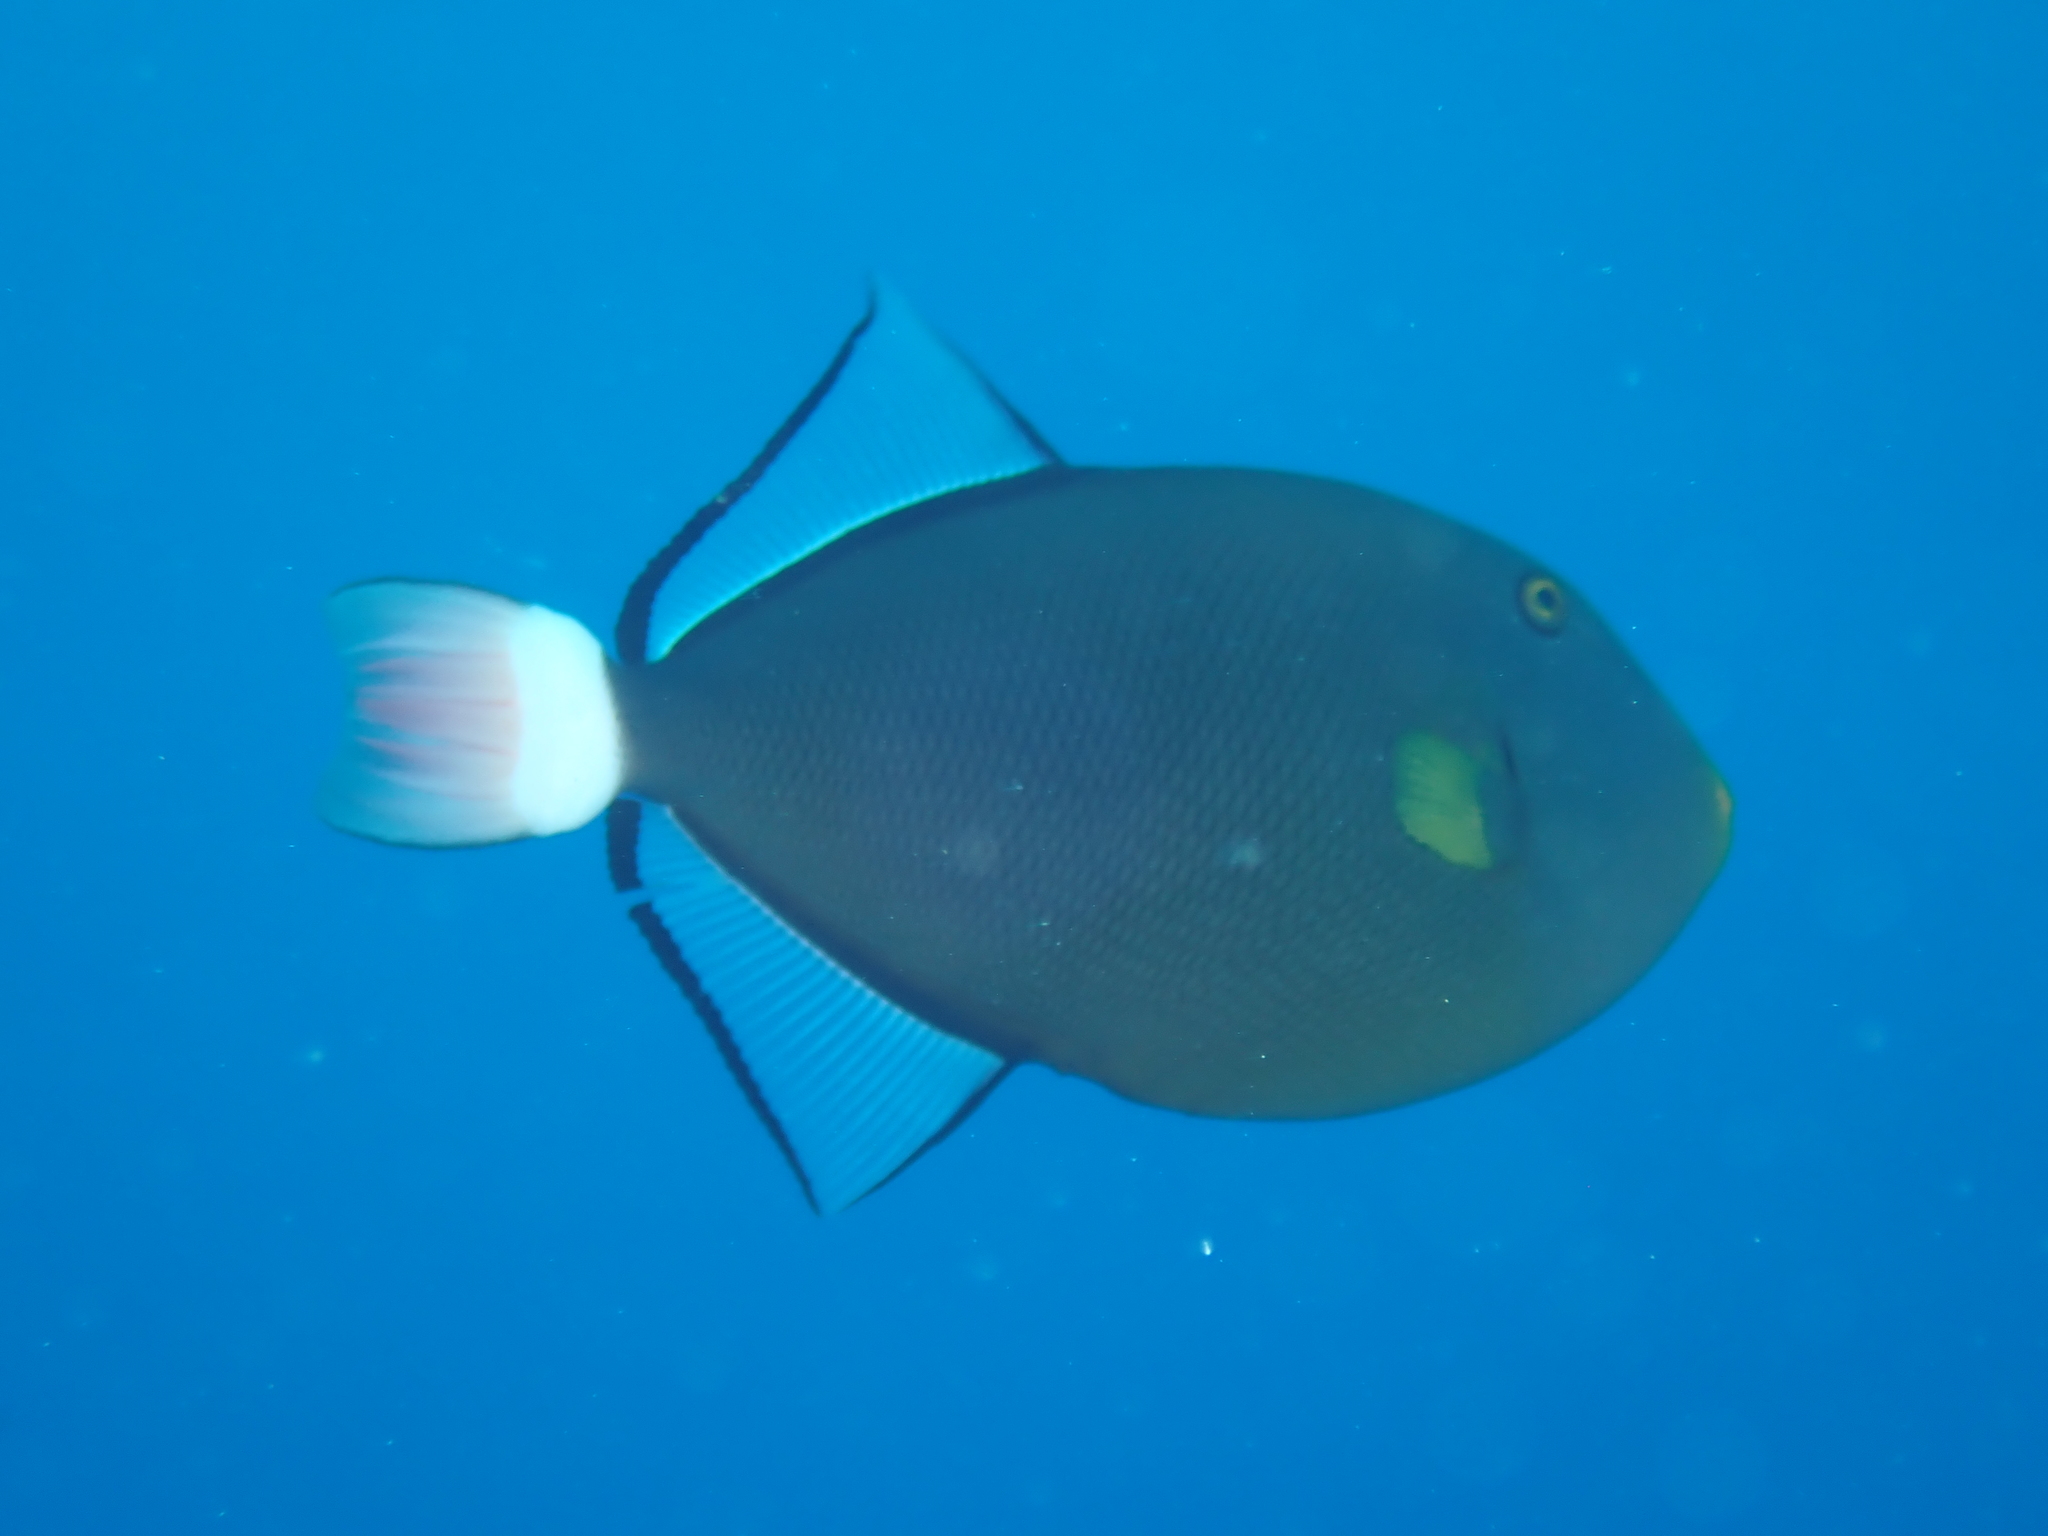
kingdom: Animalia
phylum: Chordata
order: Tetraodontiformes
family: Balistidae
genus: Melichthys
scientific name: Melichthys vidua
